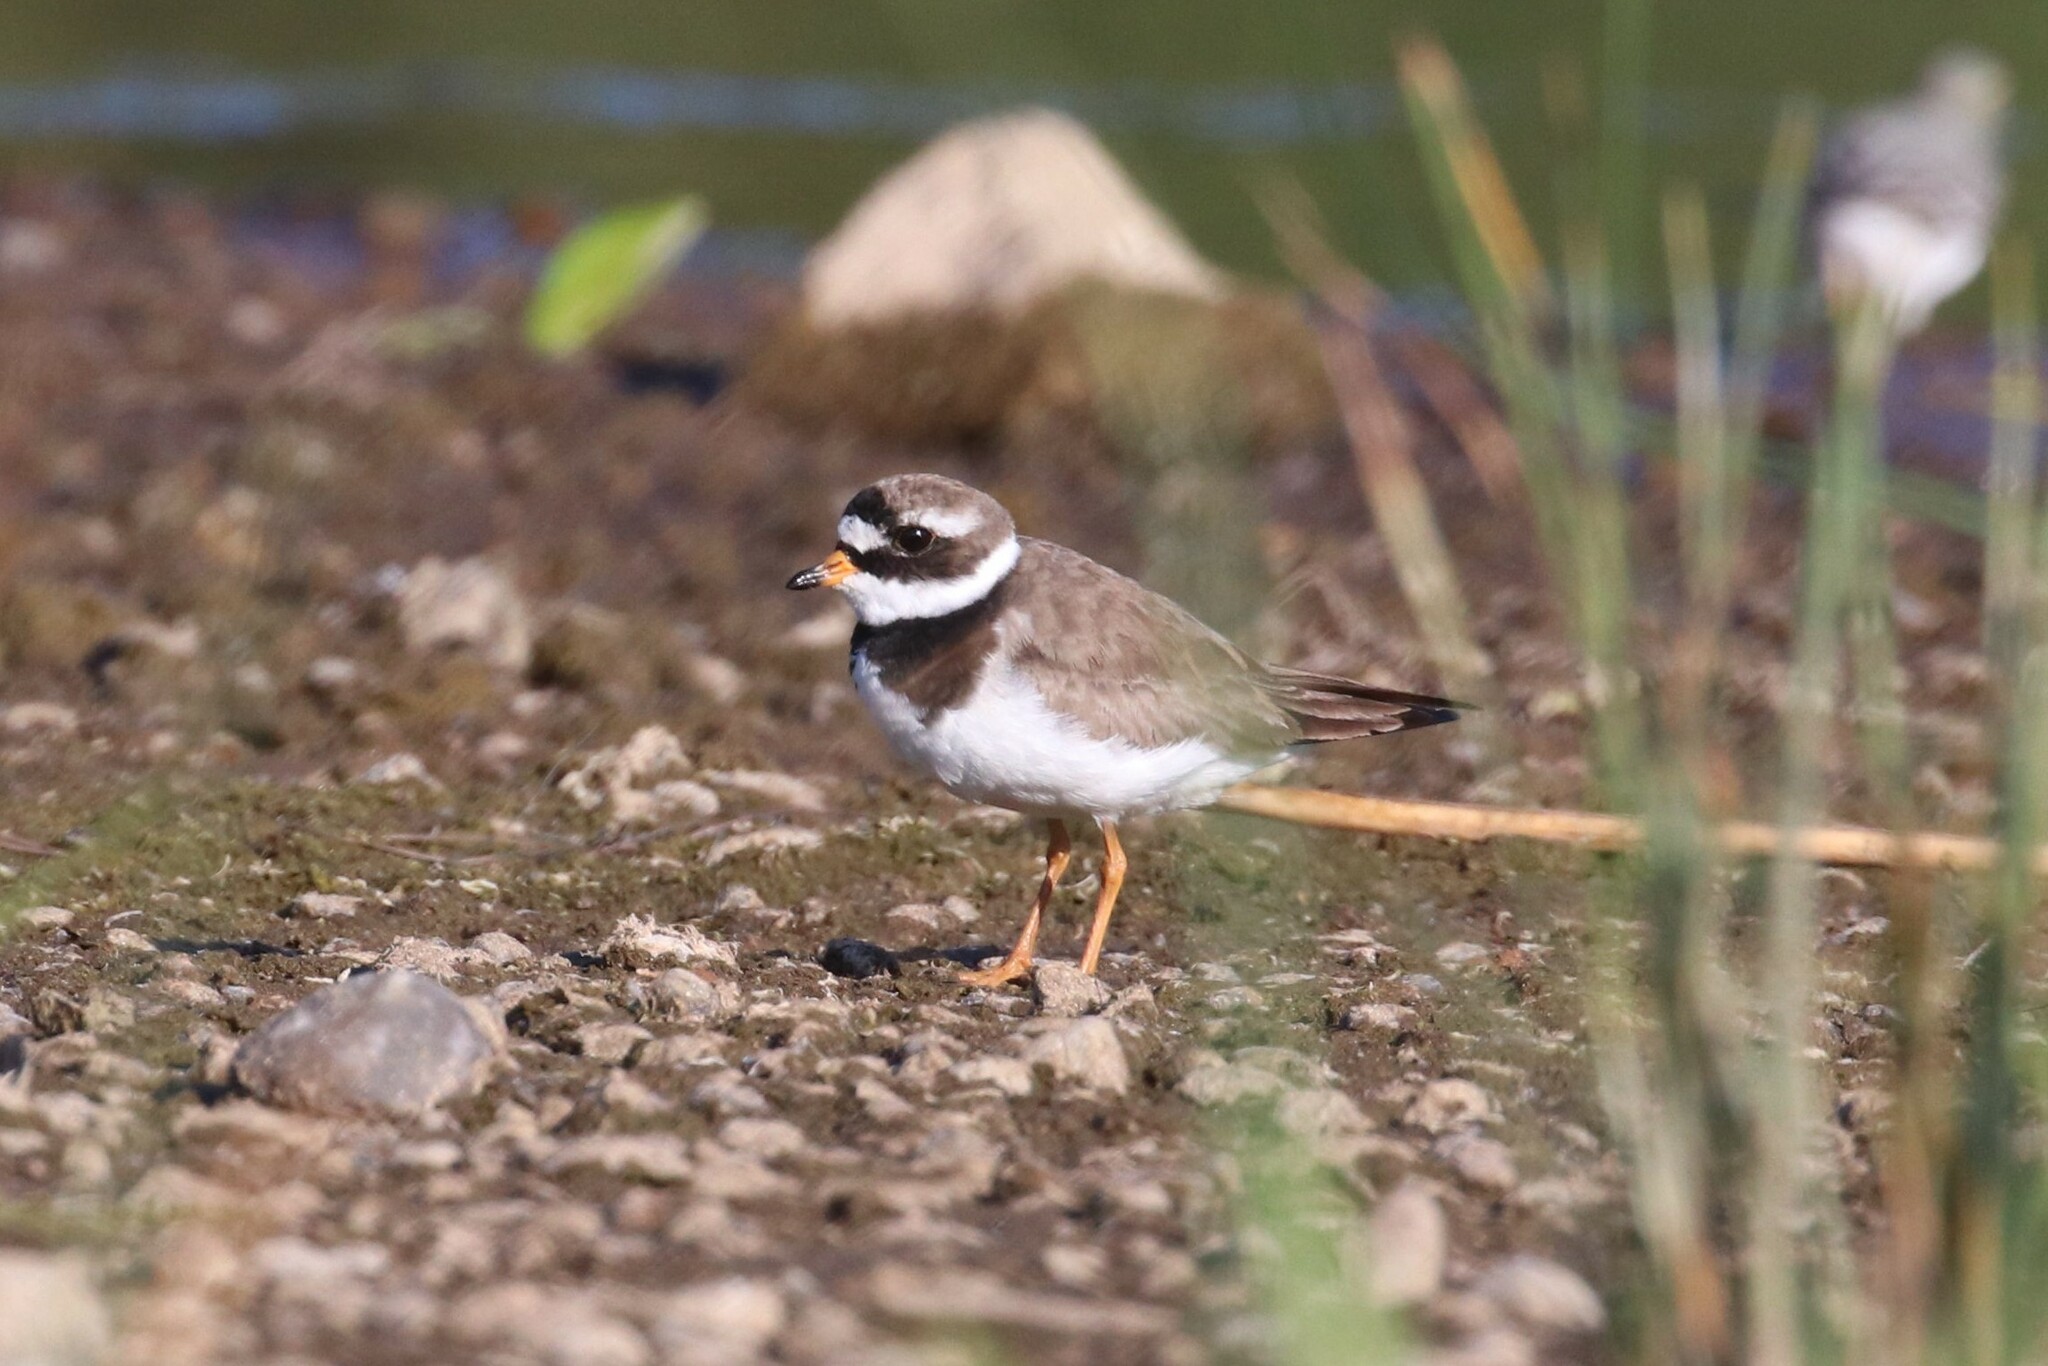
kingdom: Animalia
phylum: Chordata
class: Aves
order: Charadriiformes
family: Charadriidae
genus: Charadrius
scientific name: Charadrius hiaticula
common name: Common ringed plover
